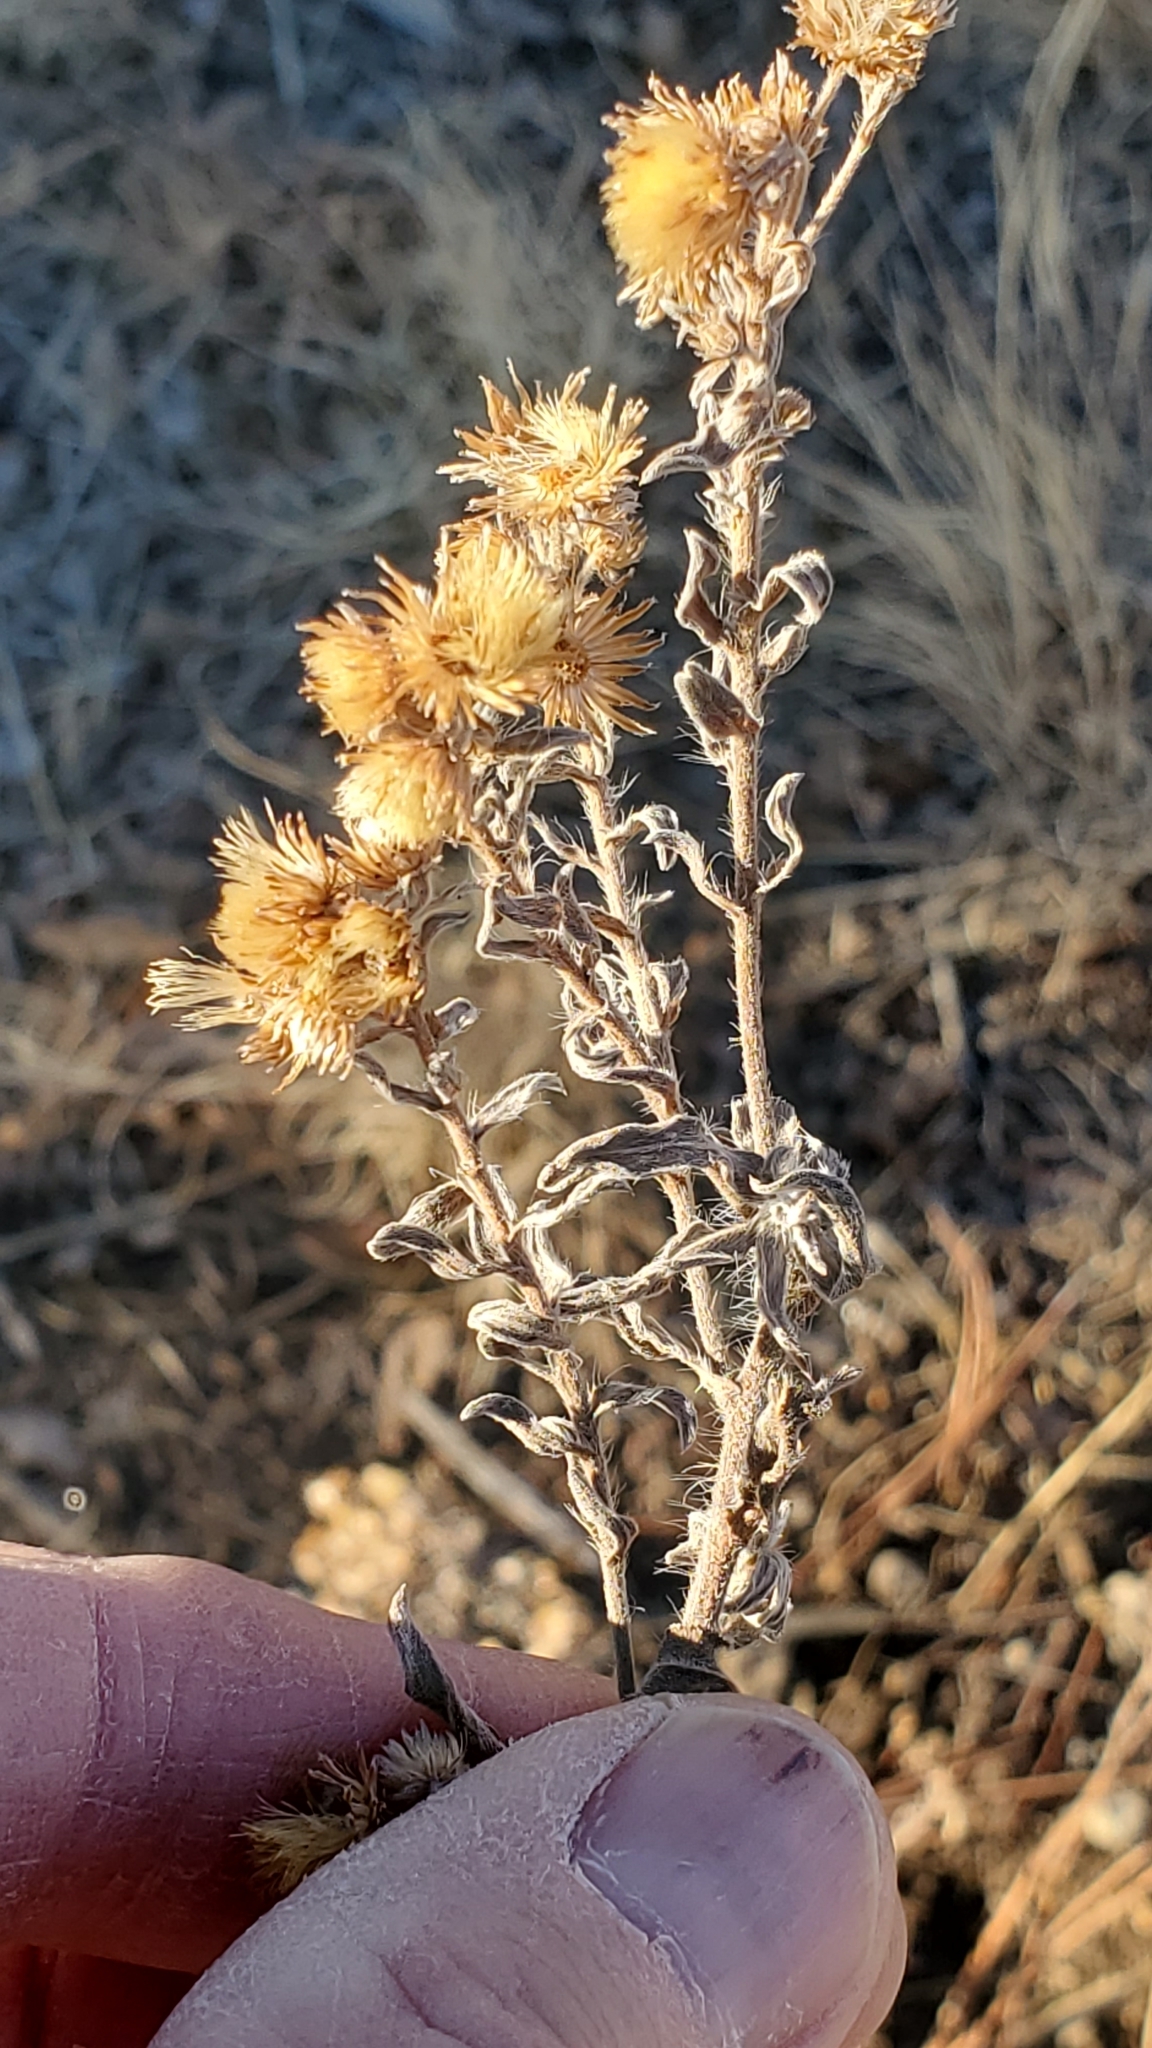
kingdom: Plantae
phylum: Tracheophyta
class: Magnoliopsida
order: Asterales
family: Asteraceae
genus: Heterotheca
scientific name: Heterotheca hirsutissima
